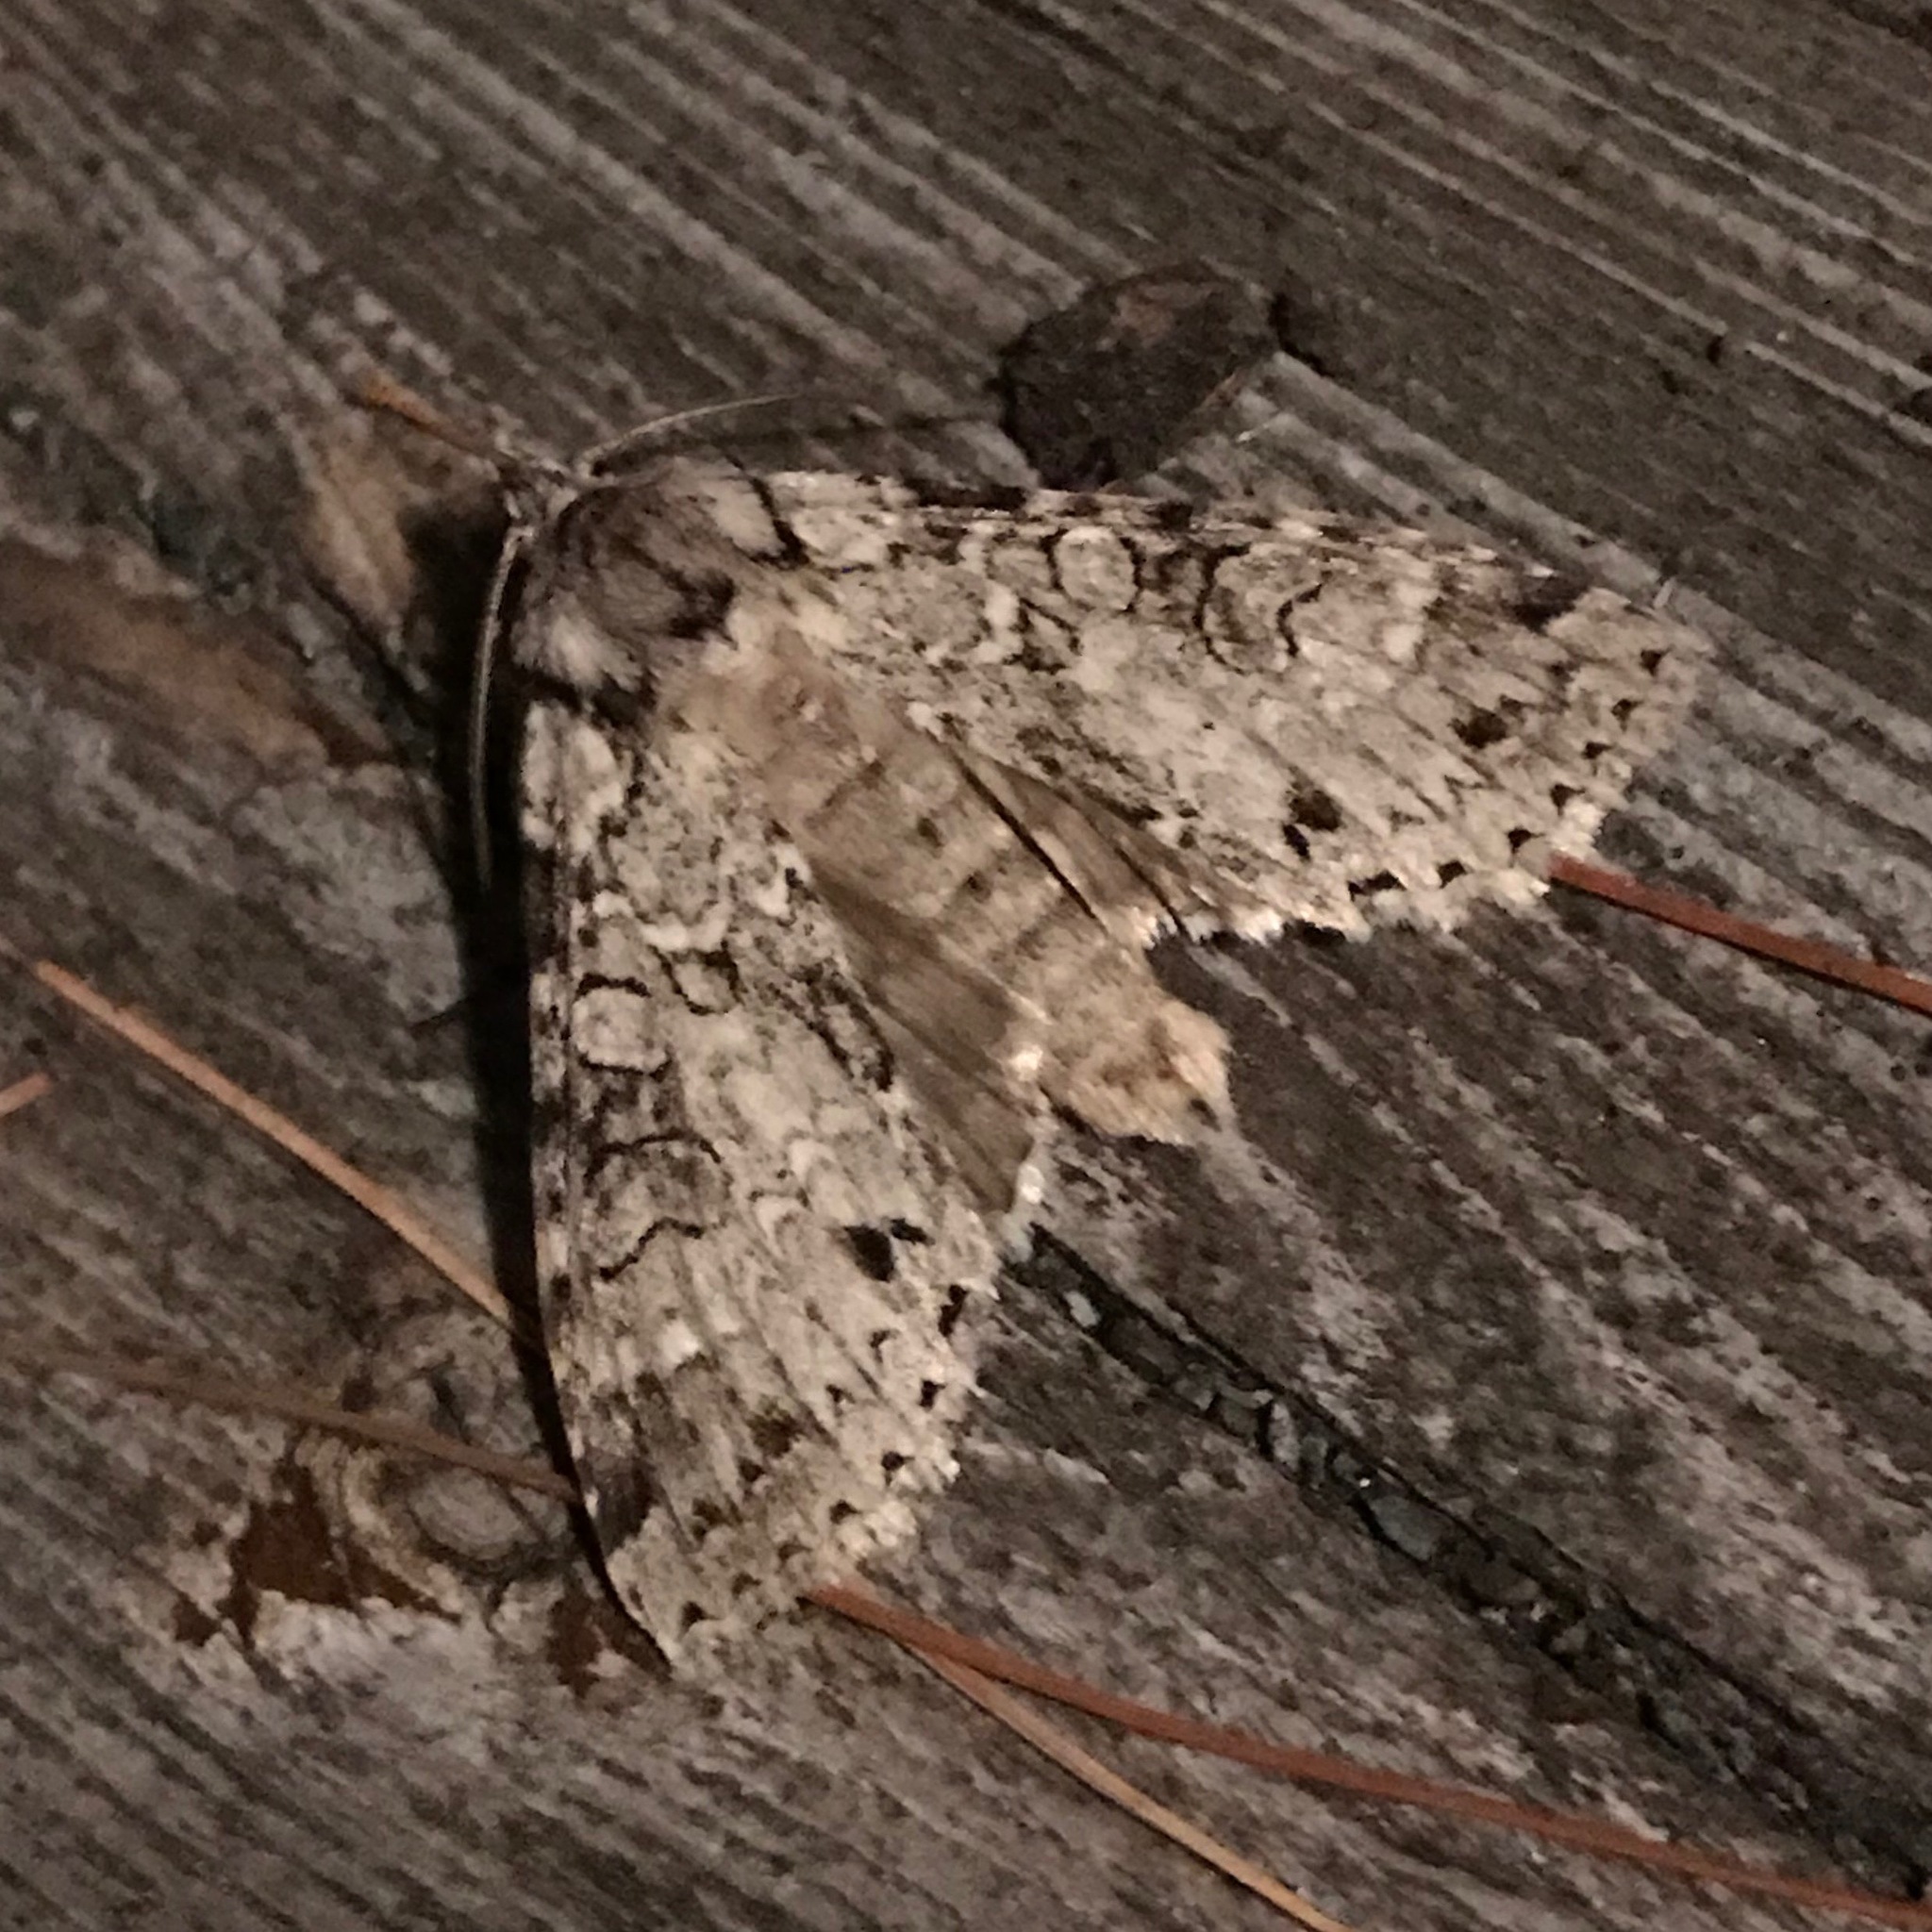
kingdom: Animalia
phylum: Arthropoda
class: Insecta
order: Lepidoptera
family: Noctuidae
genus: Polia
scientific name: Polia nimbosa
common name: Stormy arches
